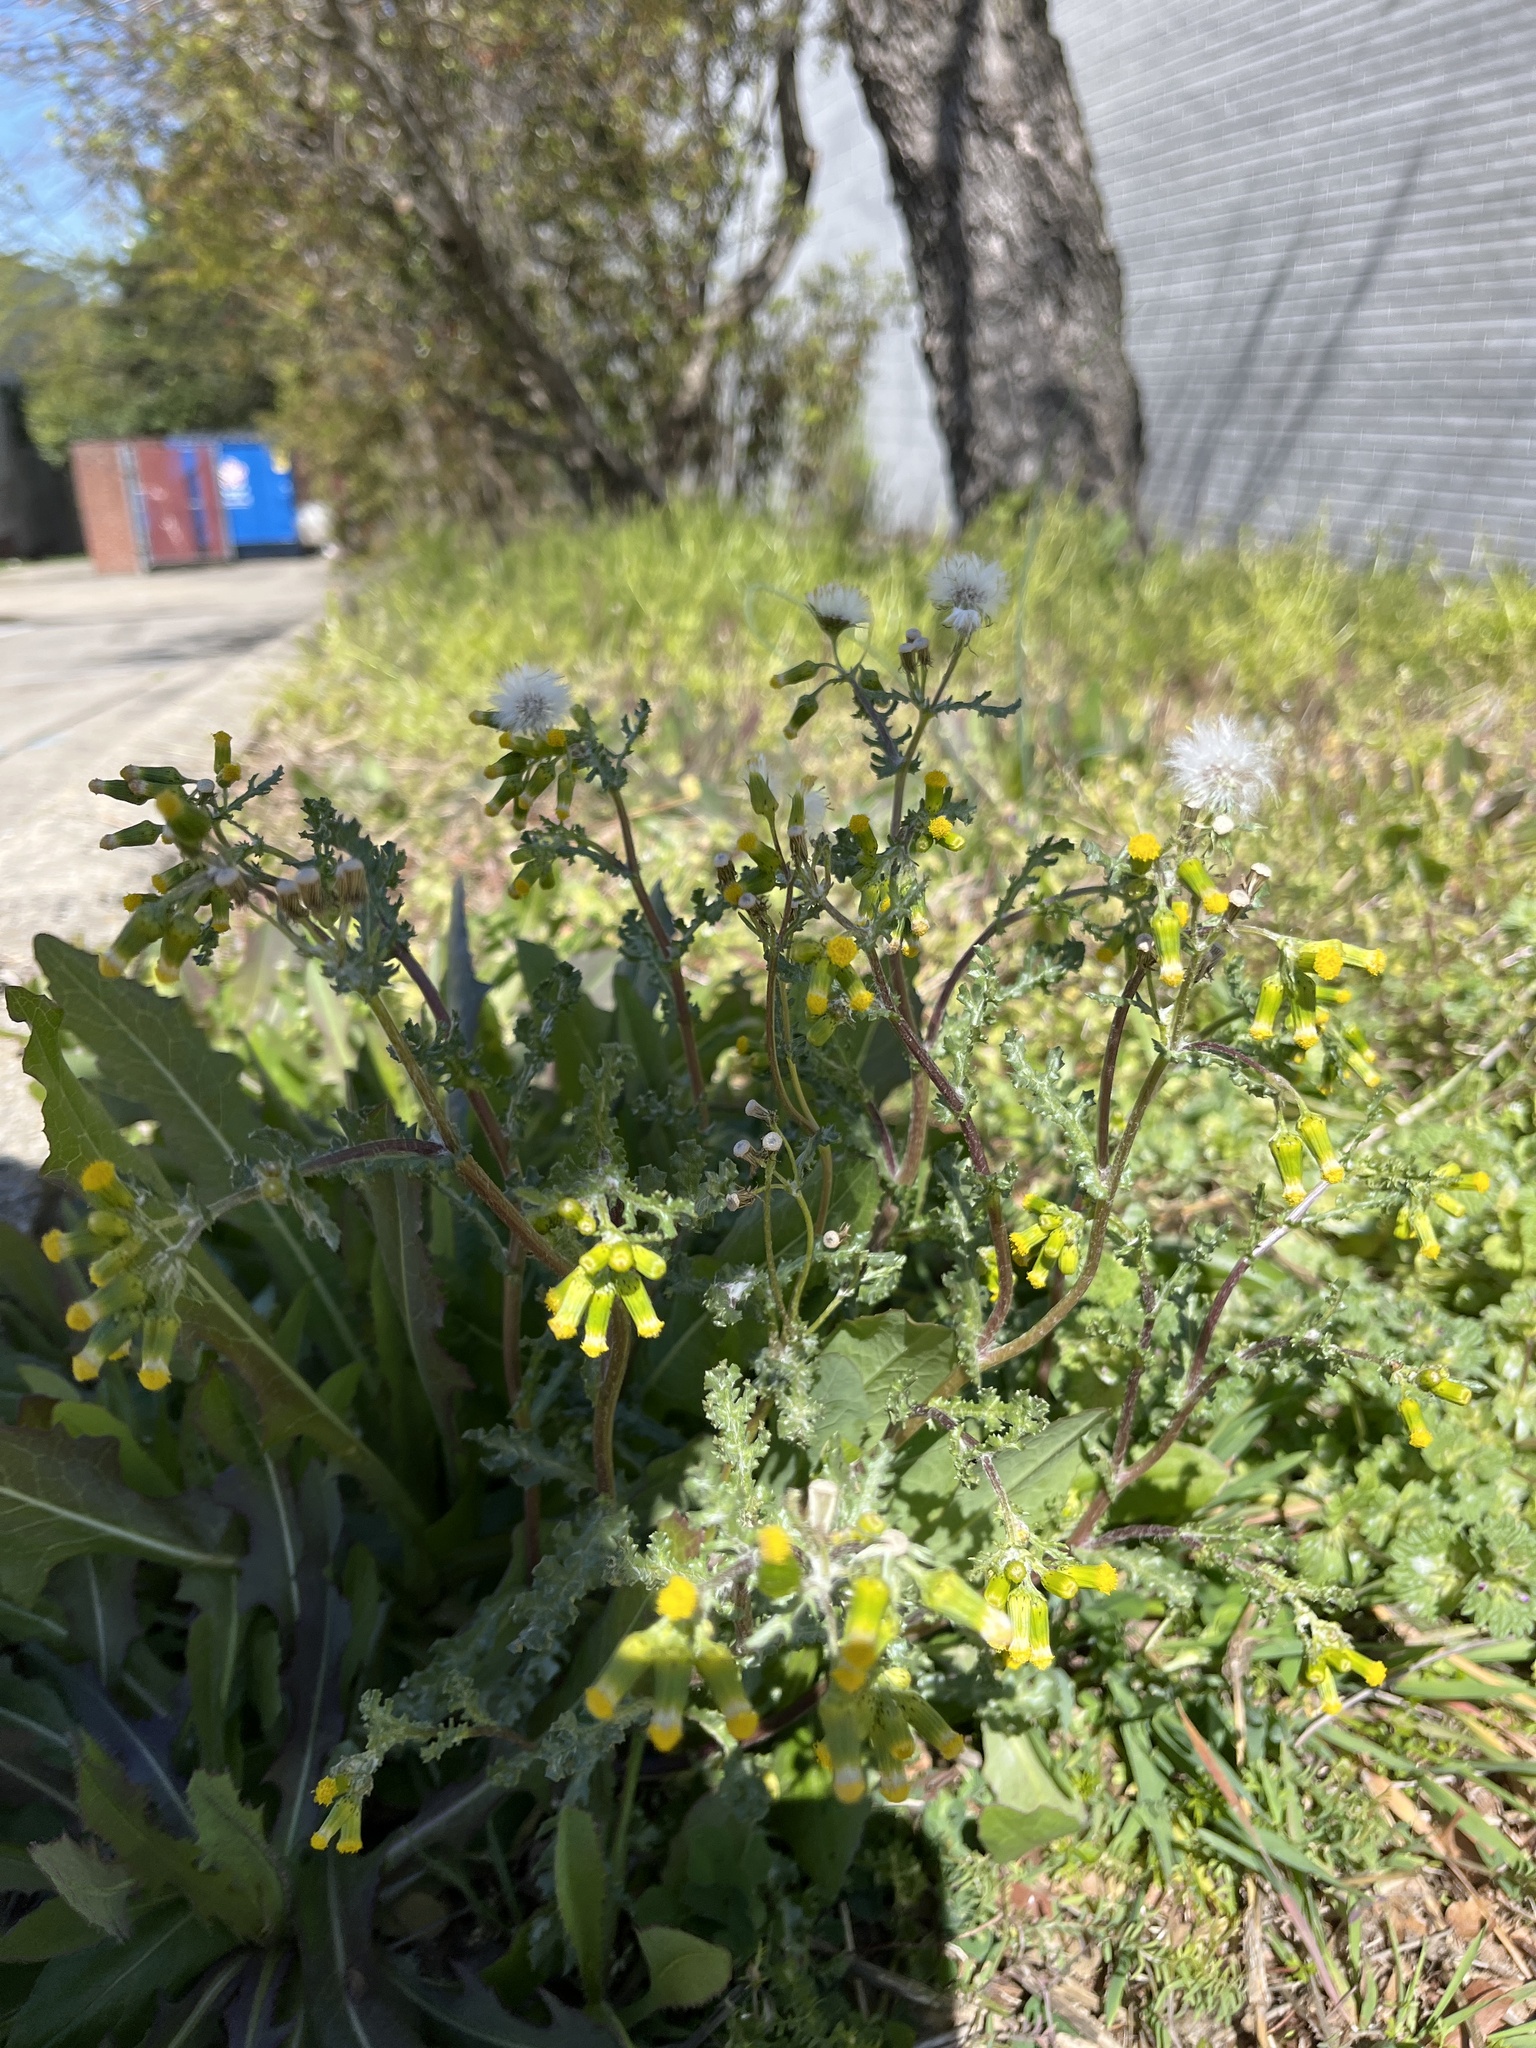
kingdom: Plantae
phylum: Tracheophyta
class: Magnoliopsida
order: Asterales
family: Asteraceae
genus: Senecio
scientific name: Senecio vulgaris
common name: Old-man-in-the-spring
